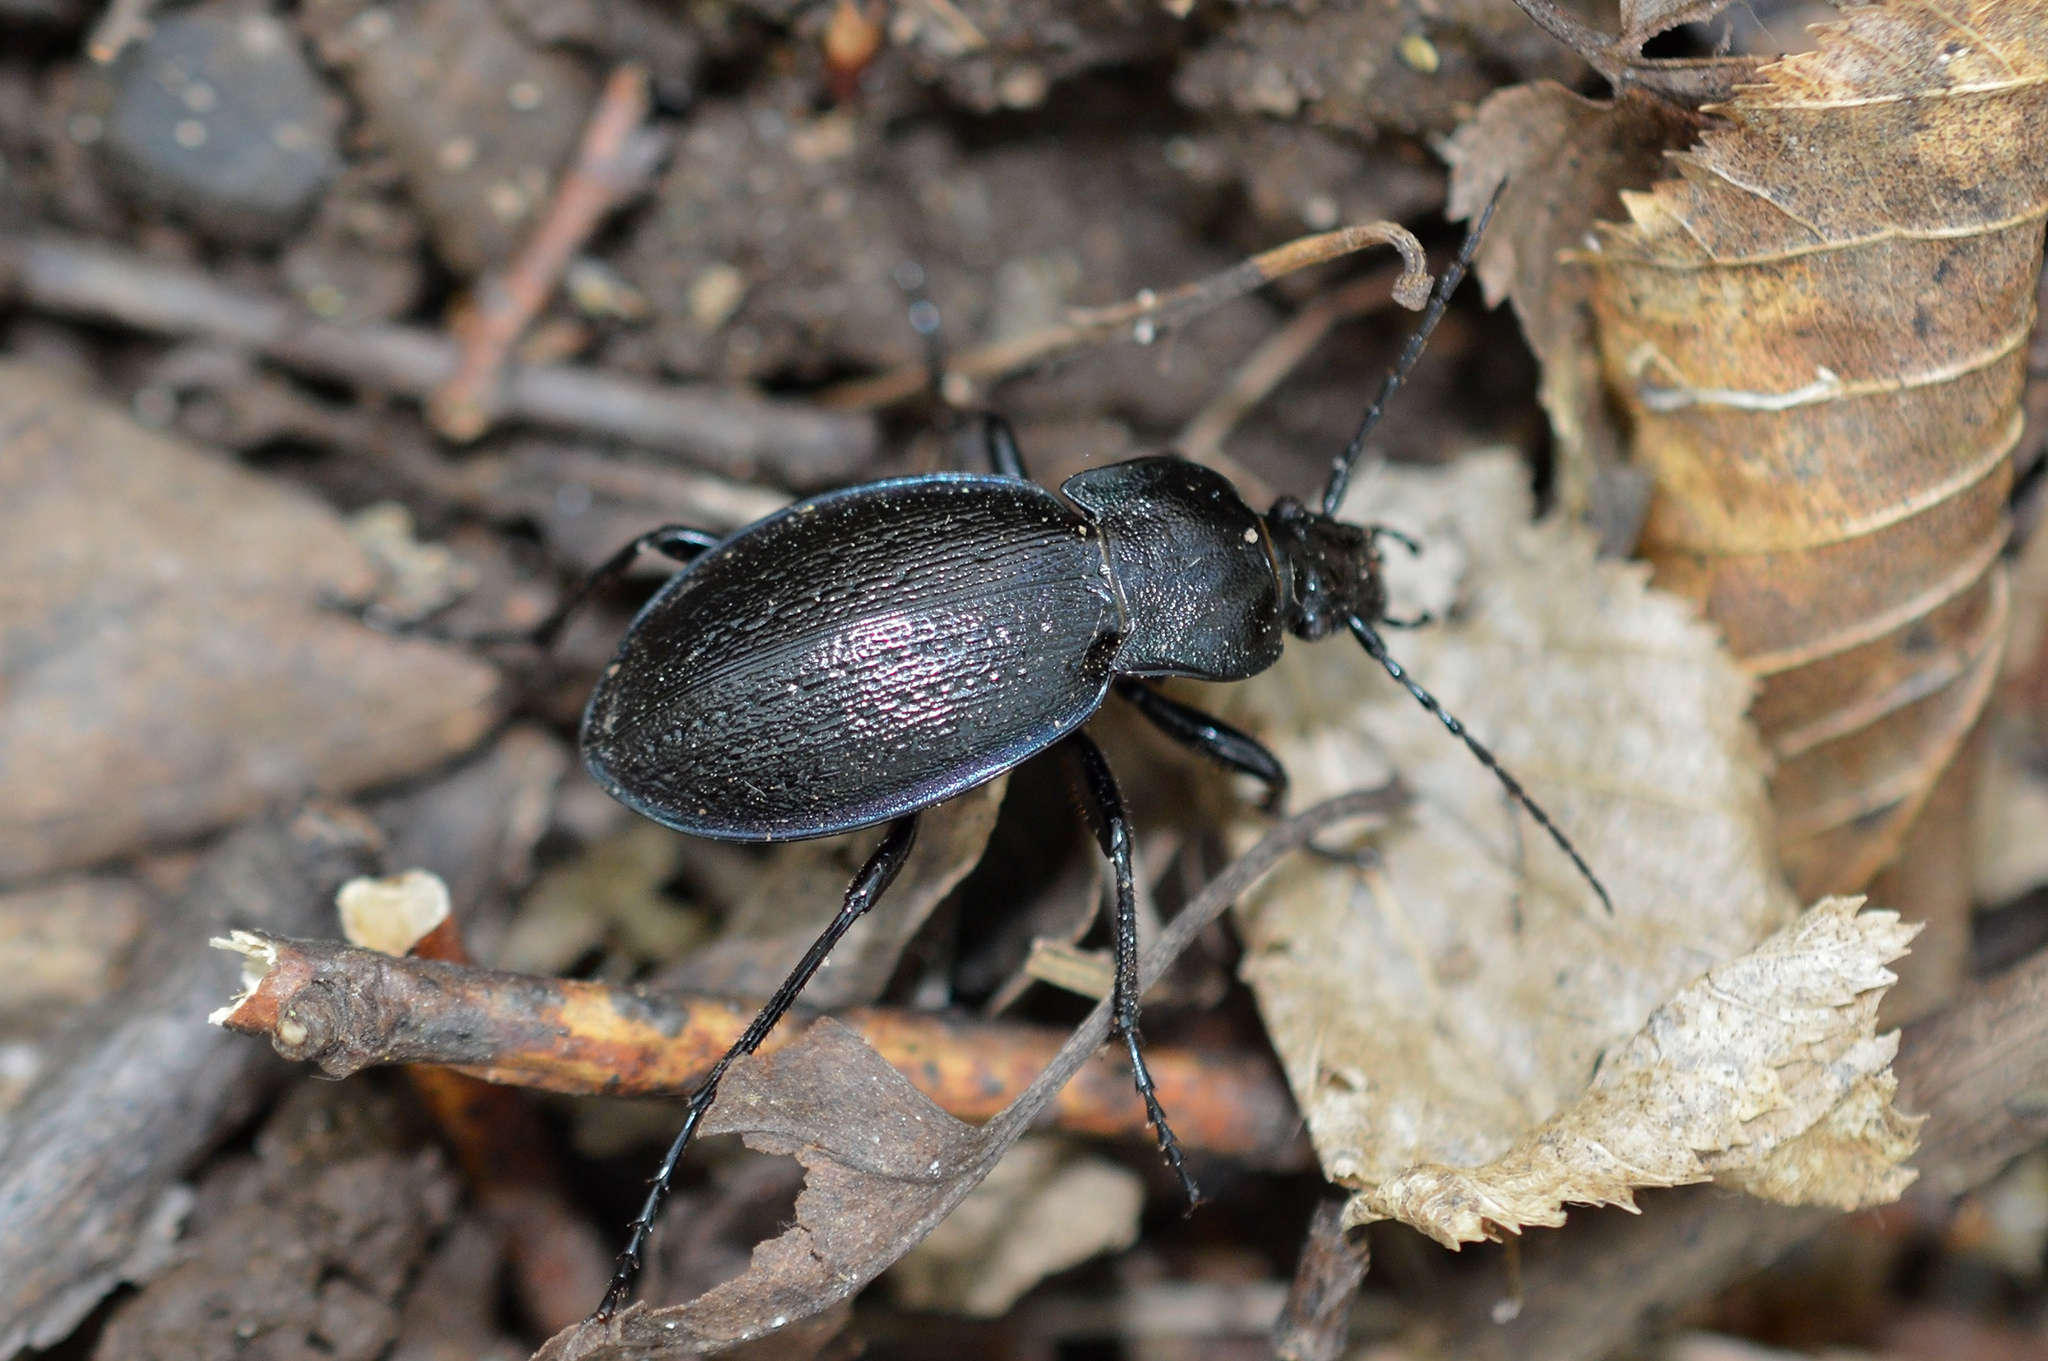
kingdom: Animalia
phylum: Arthropoda
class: Insecta
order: Coleoptera
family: Carabidae
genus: Carabus
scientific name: Carabus montivagus
